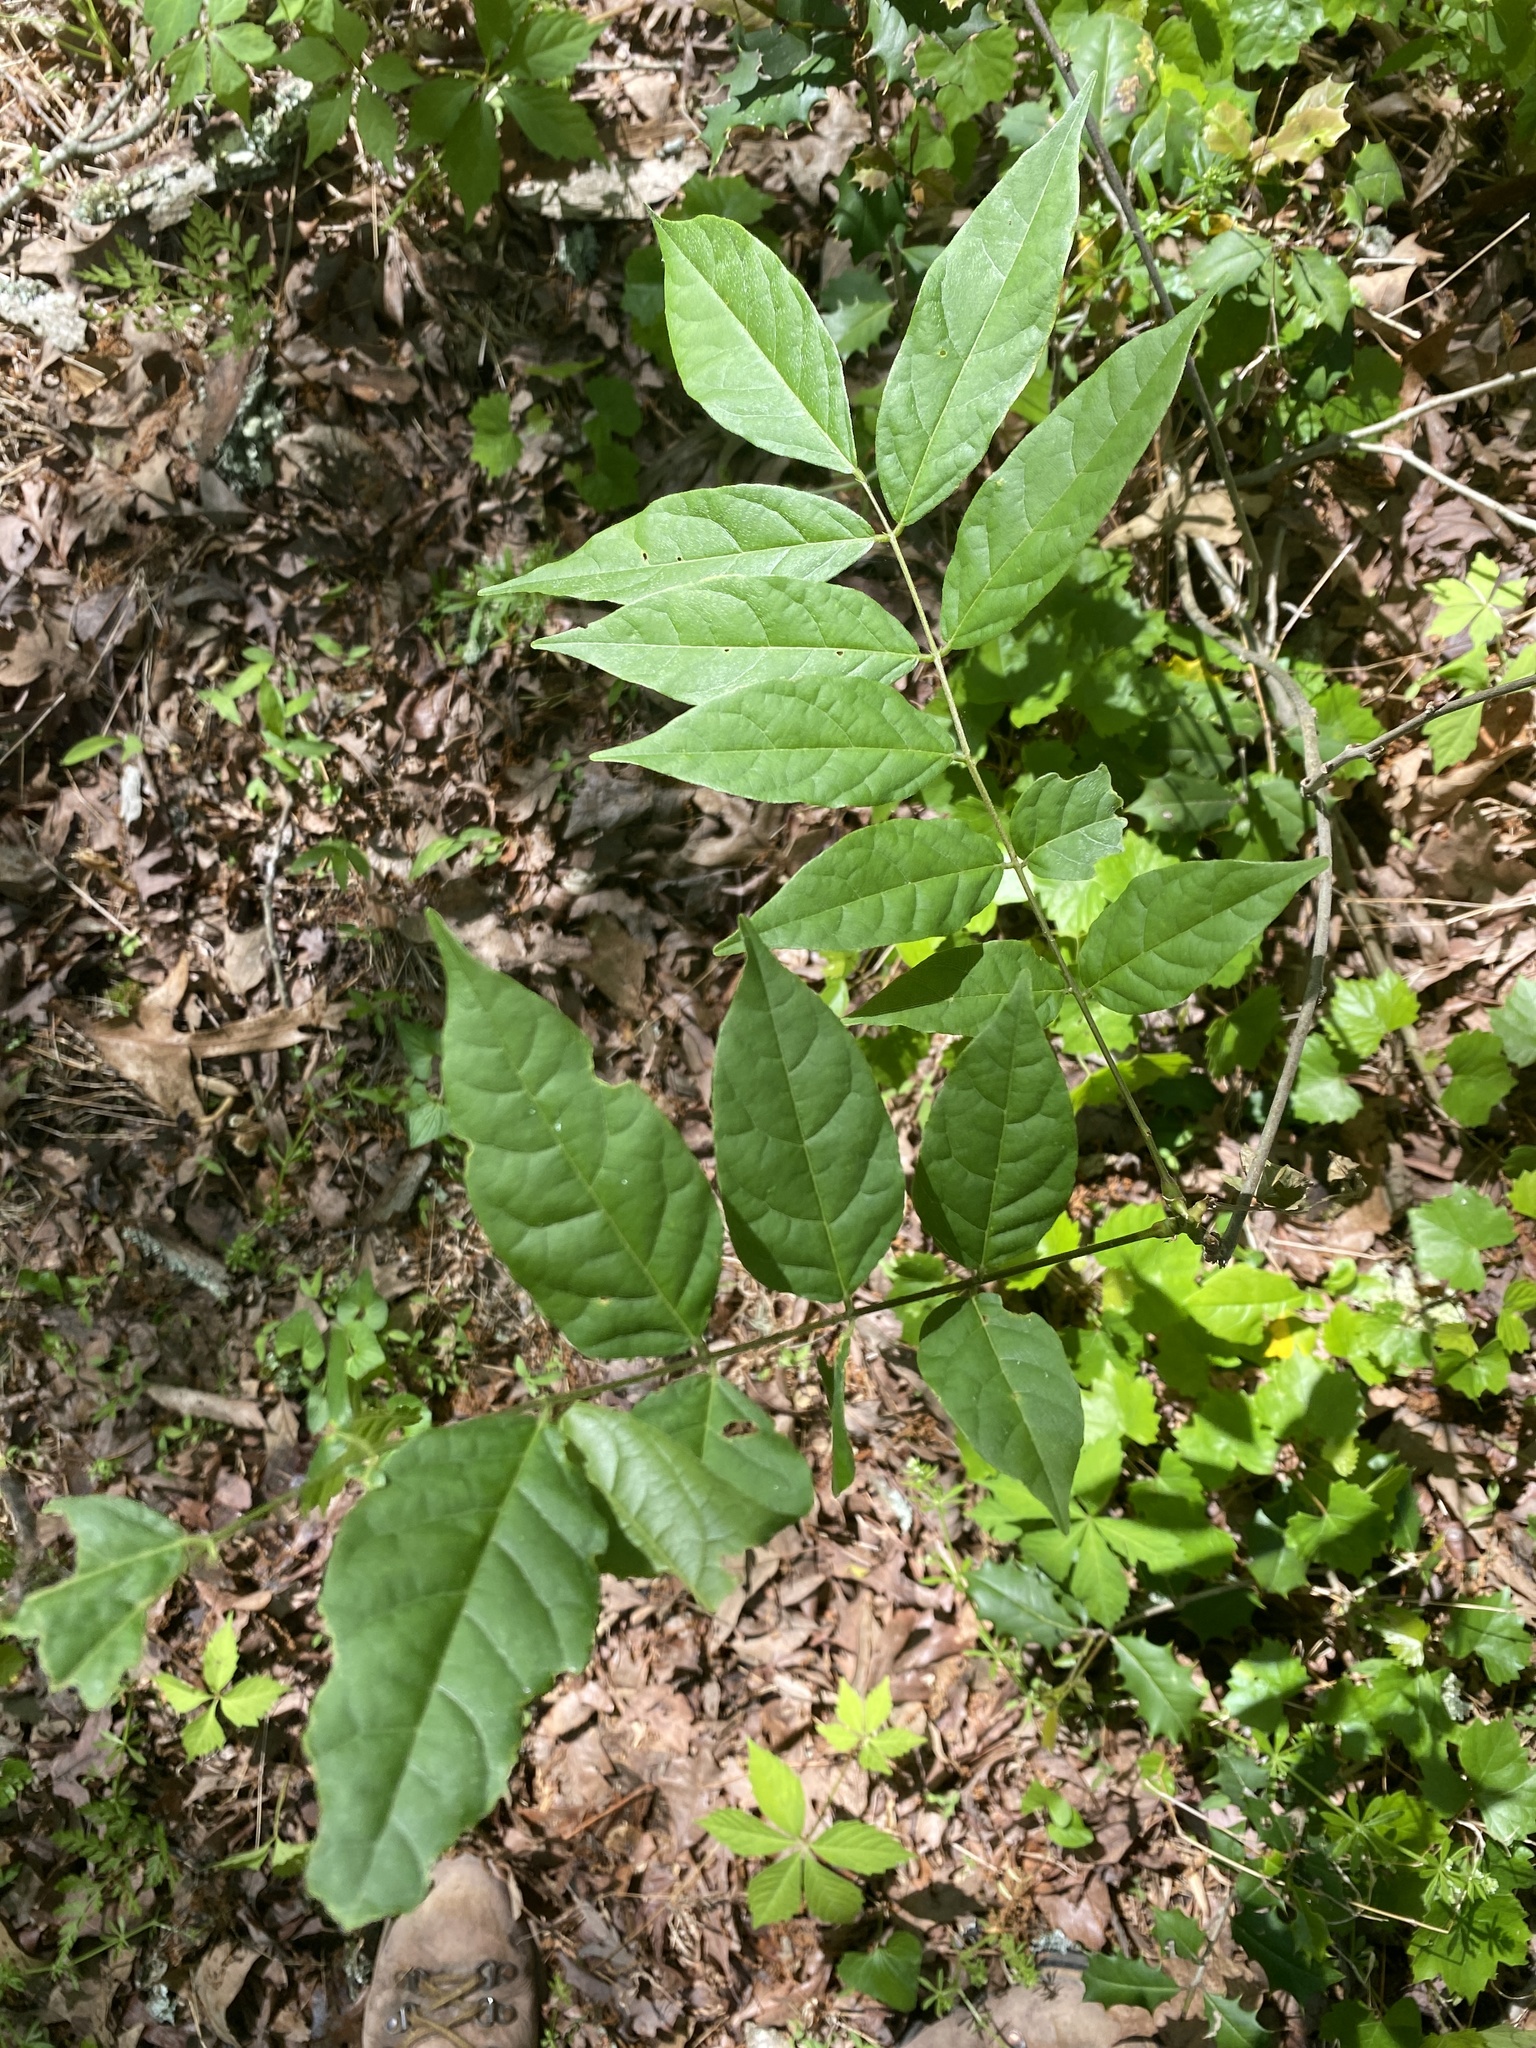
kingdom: Plantae
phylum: Tracheophyta
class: Magnoliopsida
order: Fabales
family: Fabaceae
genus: Wisteria
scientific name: Wisteria sinensis
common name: Chinese wisteria
